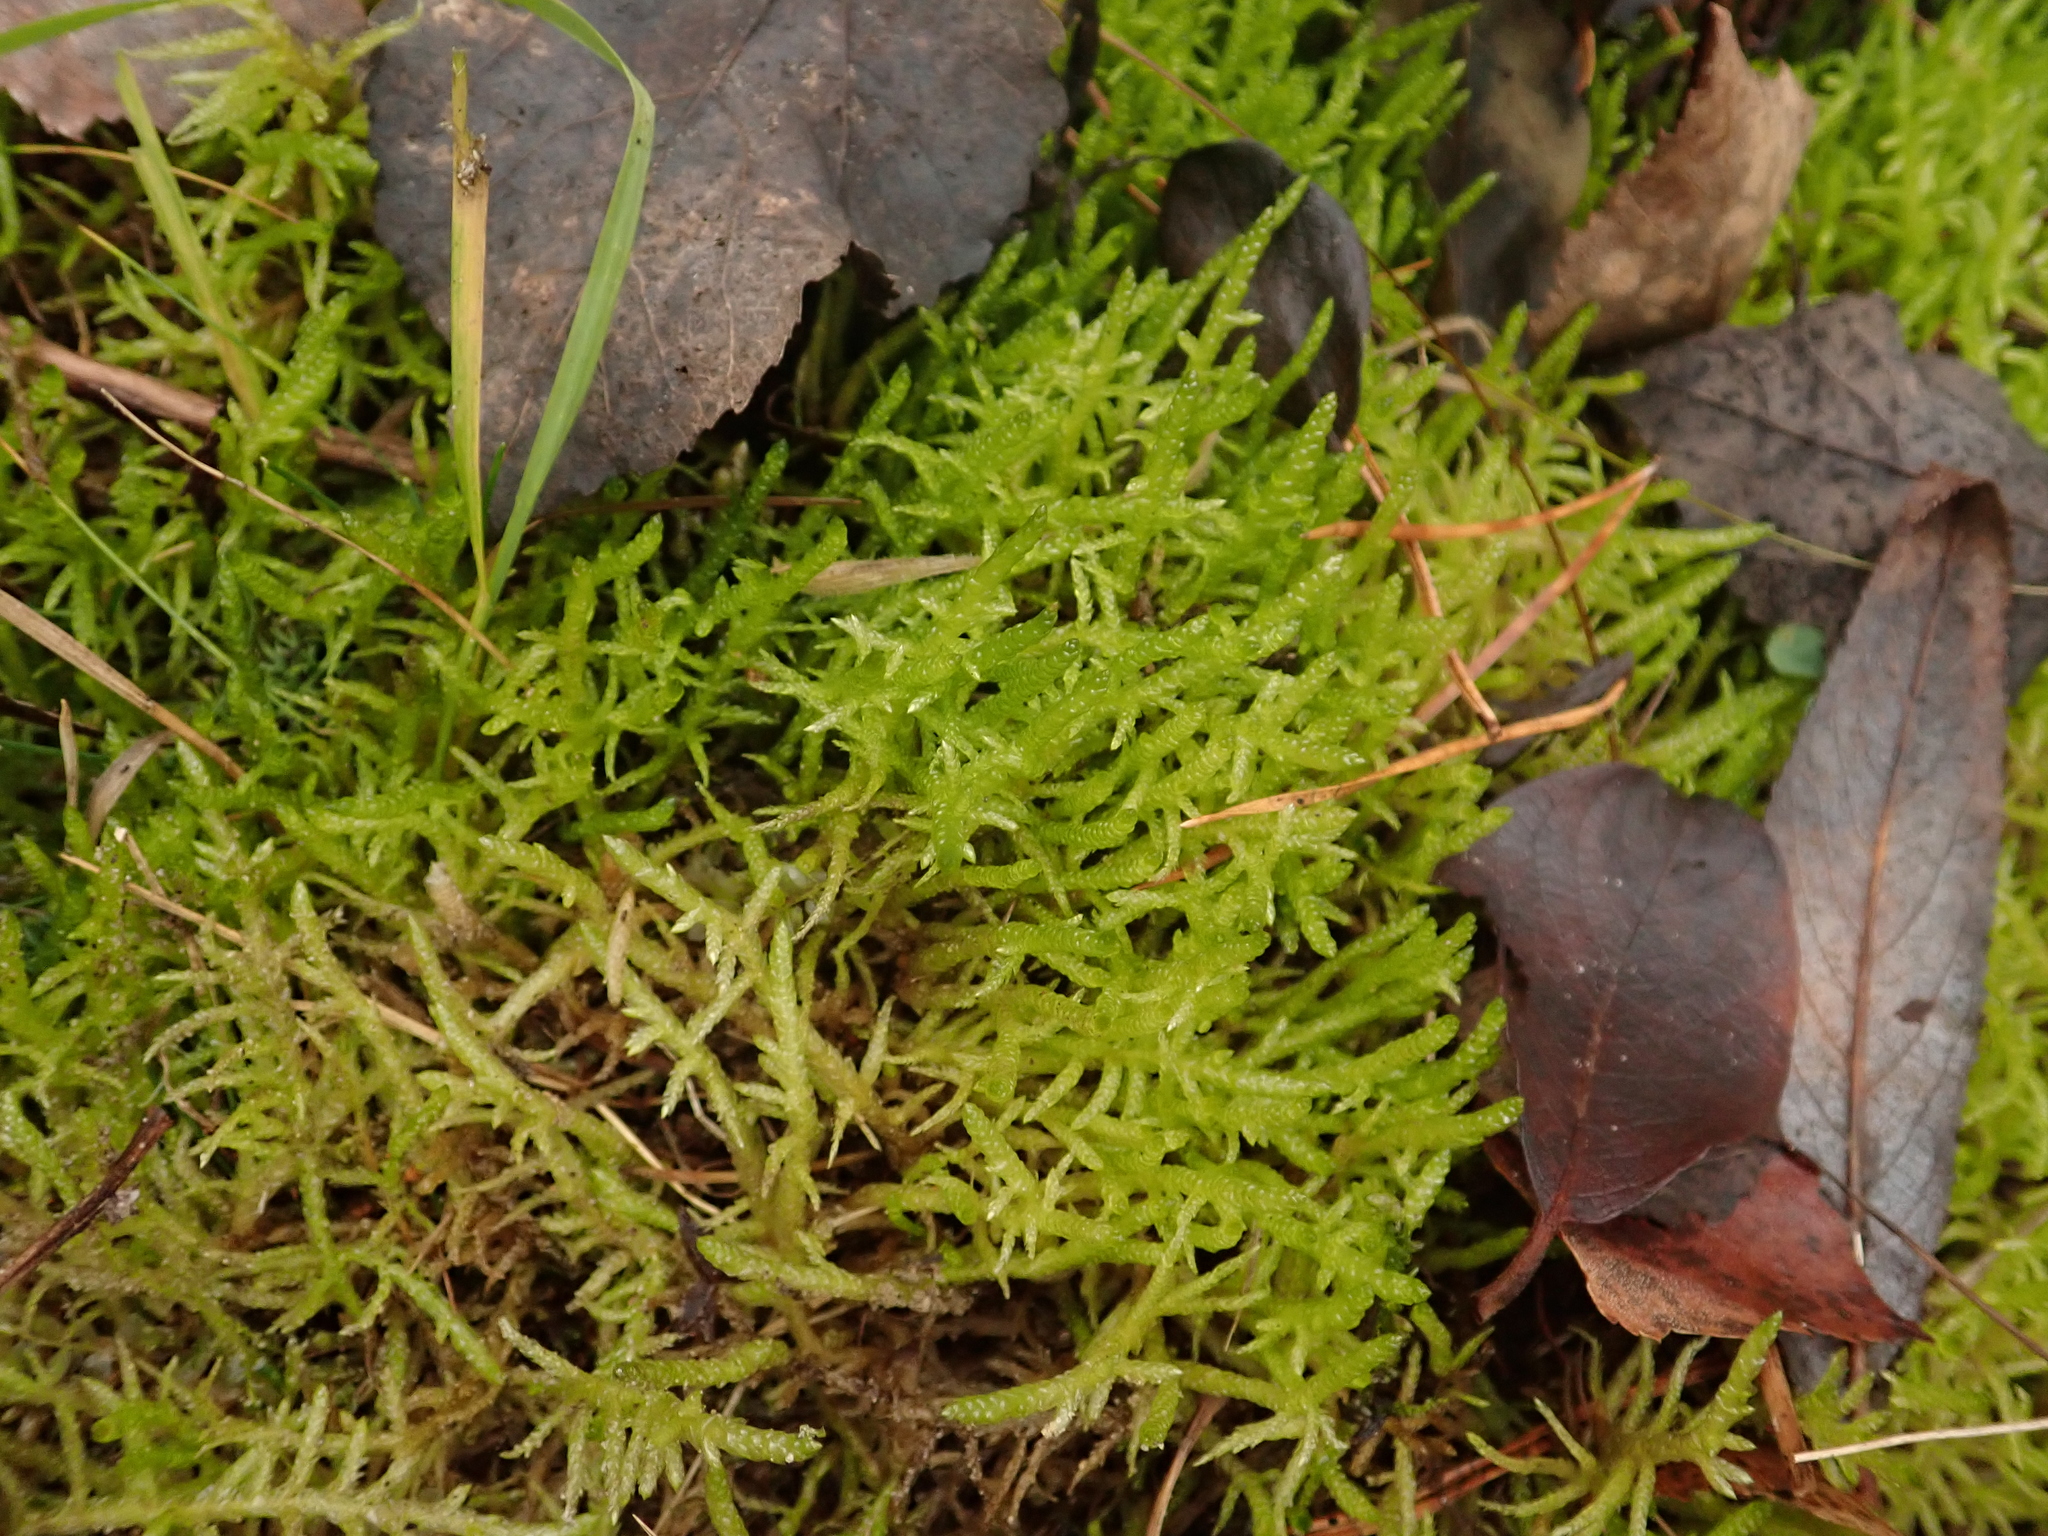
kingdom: Plantae
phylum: Bryophyta
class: Bryopsida
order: Hypnales
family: Brachytheciaceae
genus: Pseudoscleropodium
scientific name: Pseudoscleropodium purum
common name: Neat feather-moss
